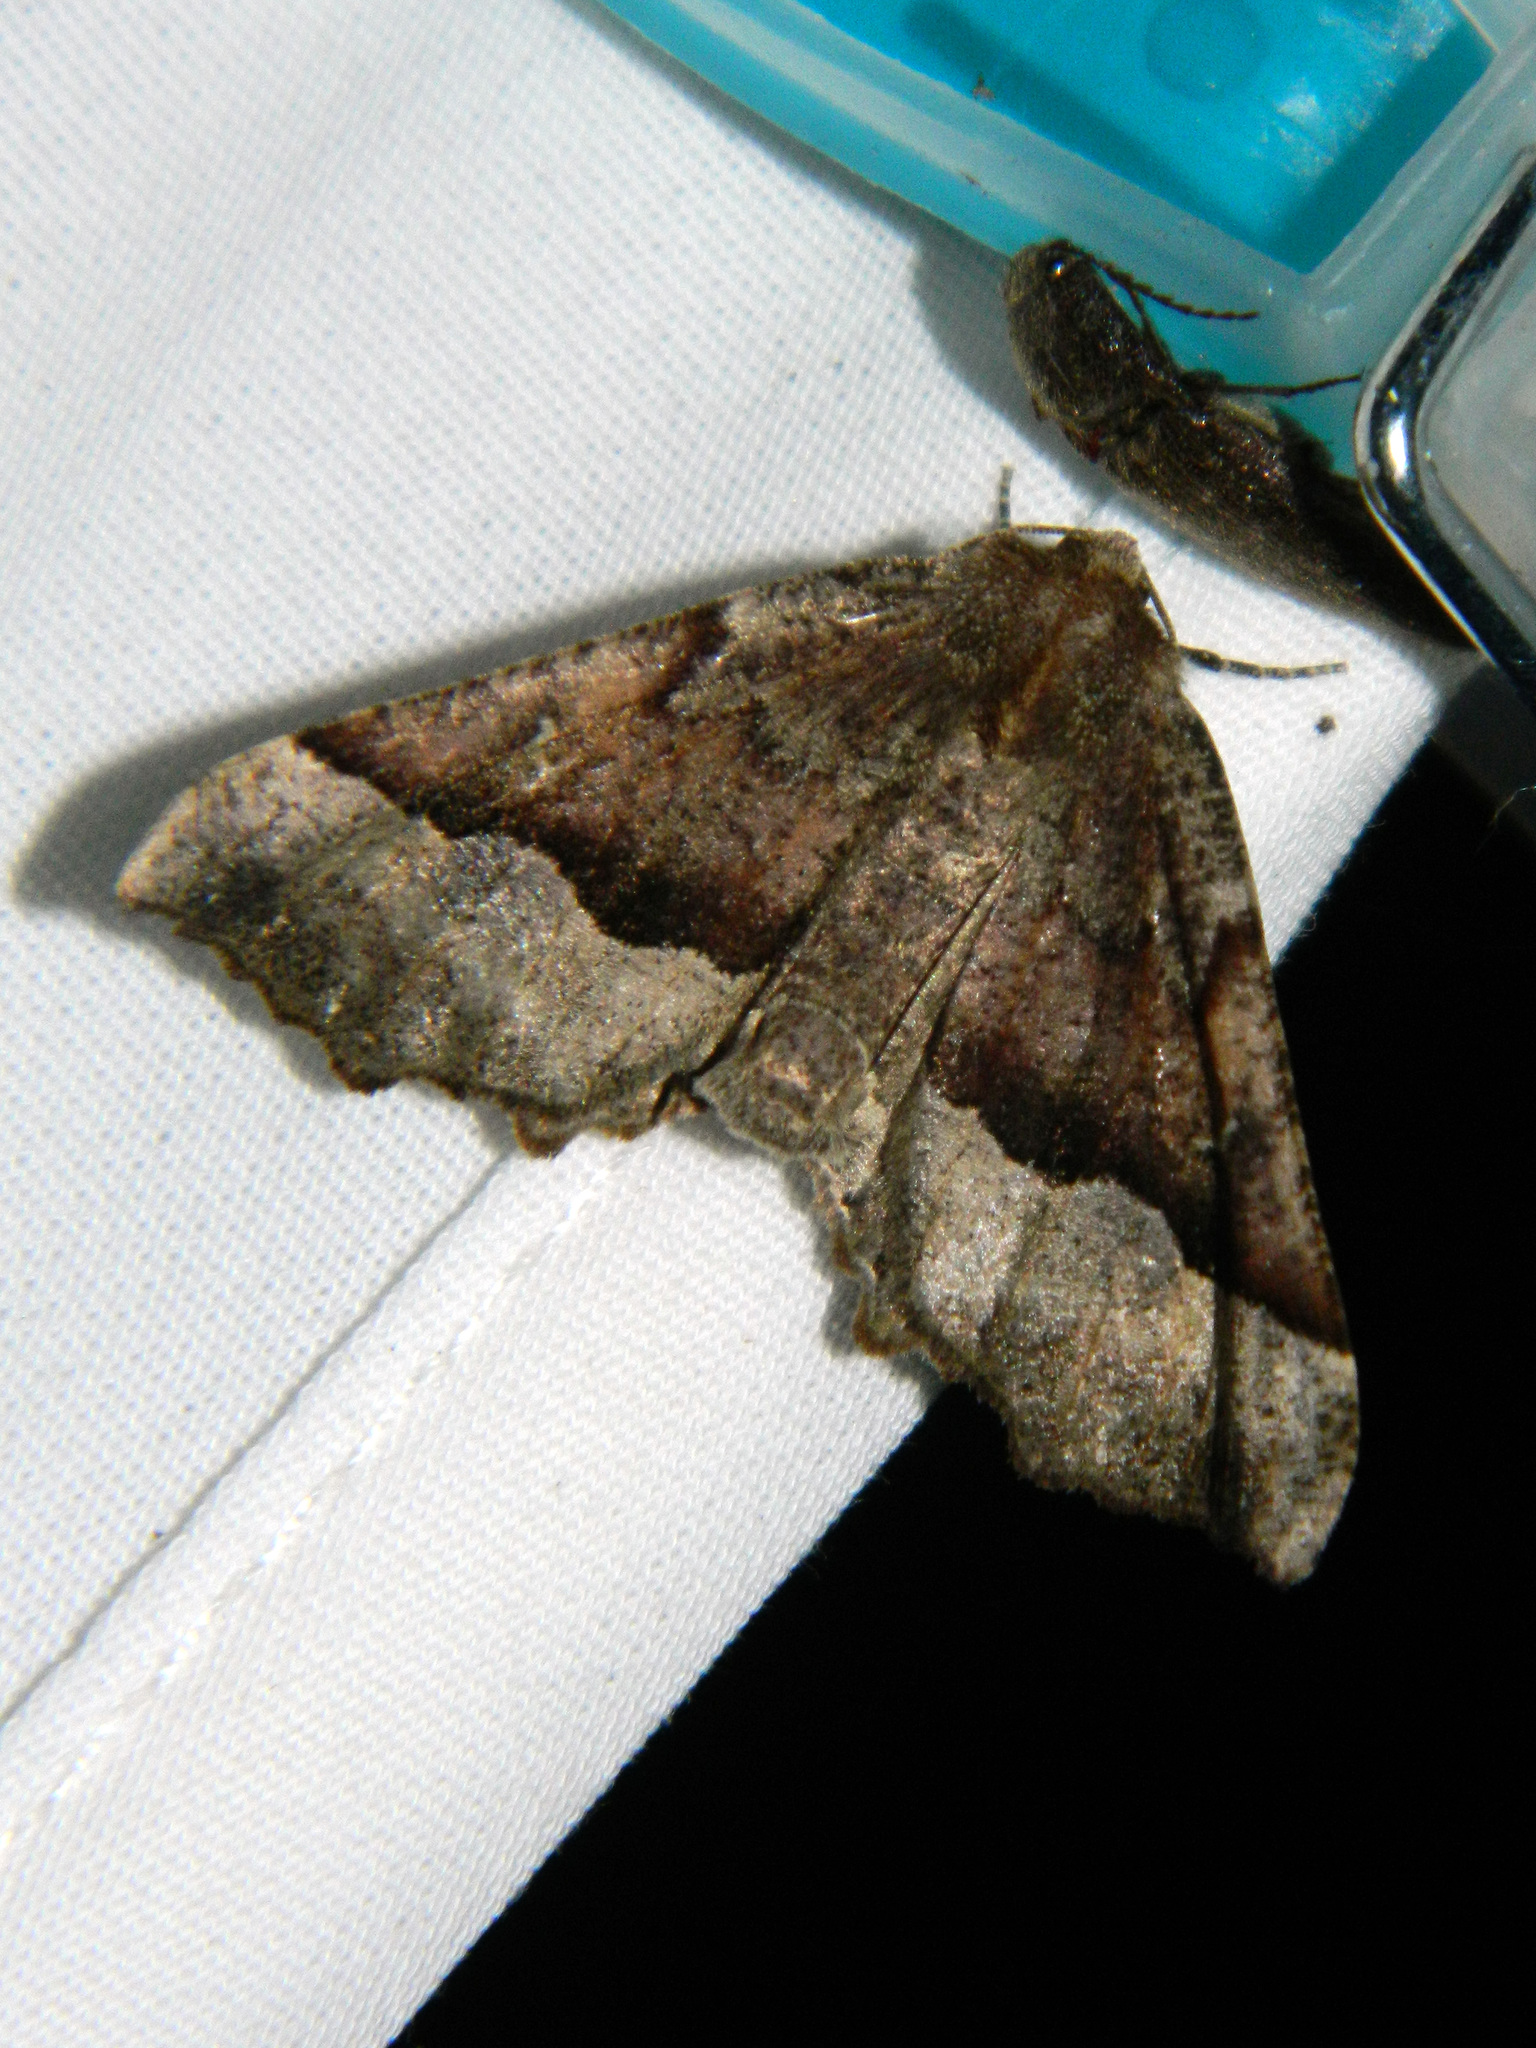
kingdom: Animalia
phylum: Arthropoda
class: Insecta
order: Lepidoptera
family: Geometridae
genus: Pero
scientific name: Pero morrisonaria
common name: Morrison's pero
